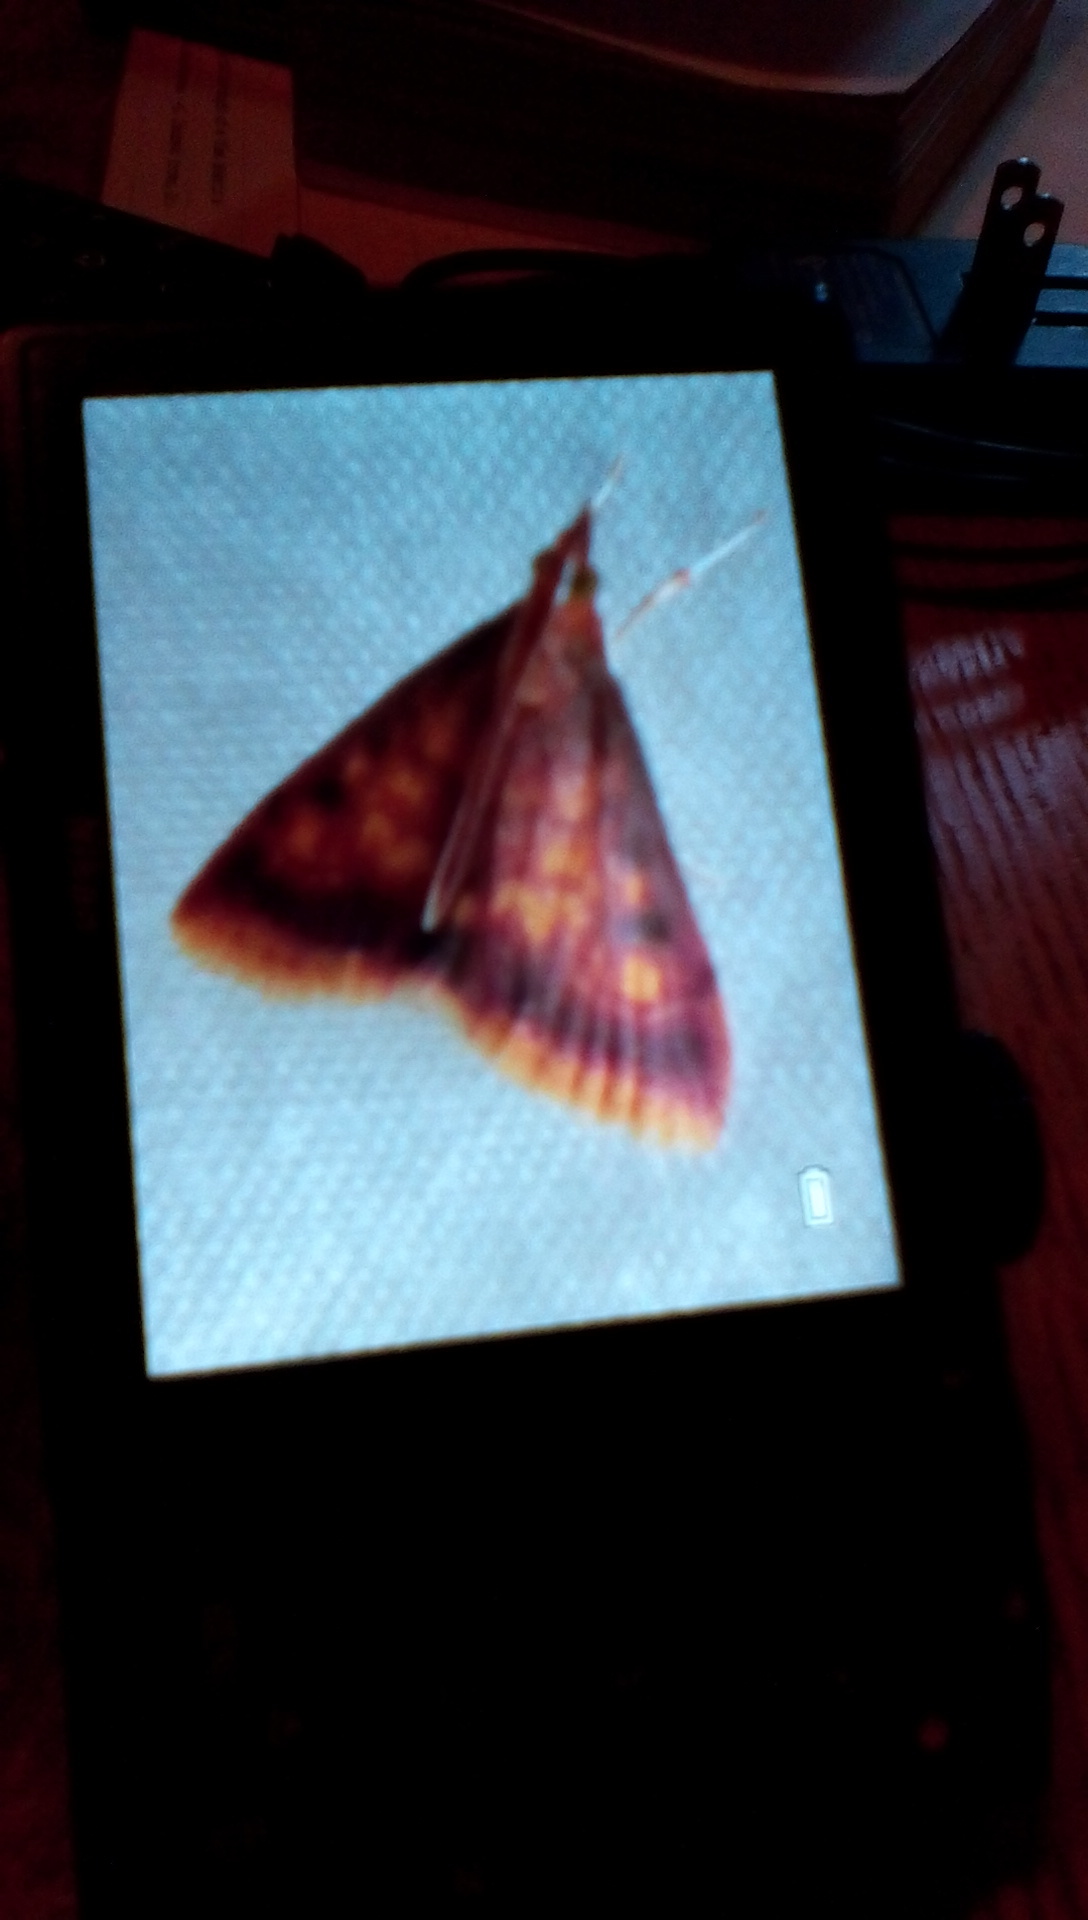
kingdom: Animalia
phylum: Arthropoda
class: Insecta
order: Lepidoptera
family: Crambidae
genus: Pyrausta
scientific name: Pyrausta acrionalis
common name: Mint-loving pyrausta moth
